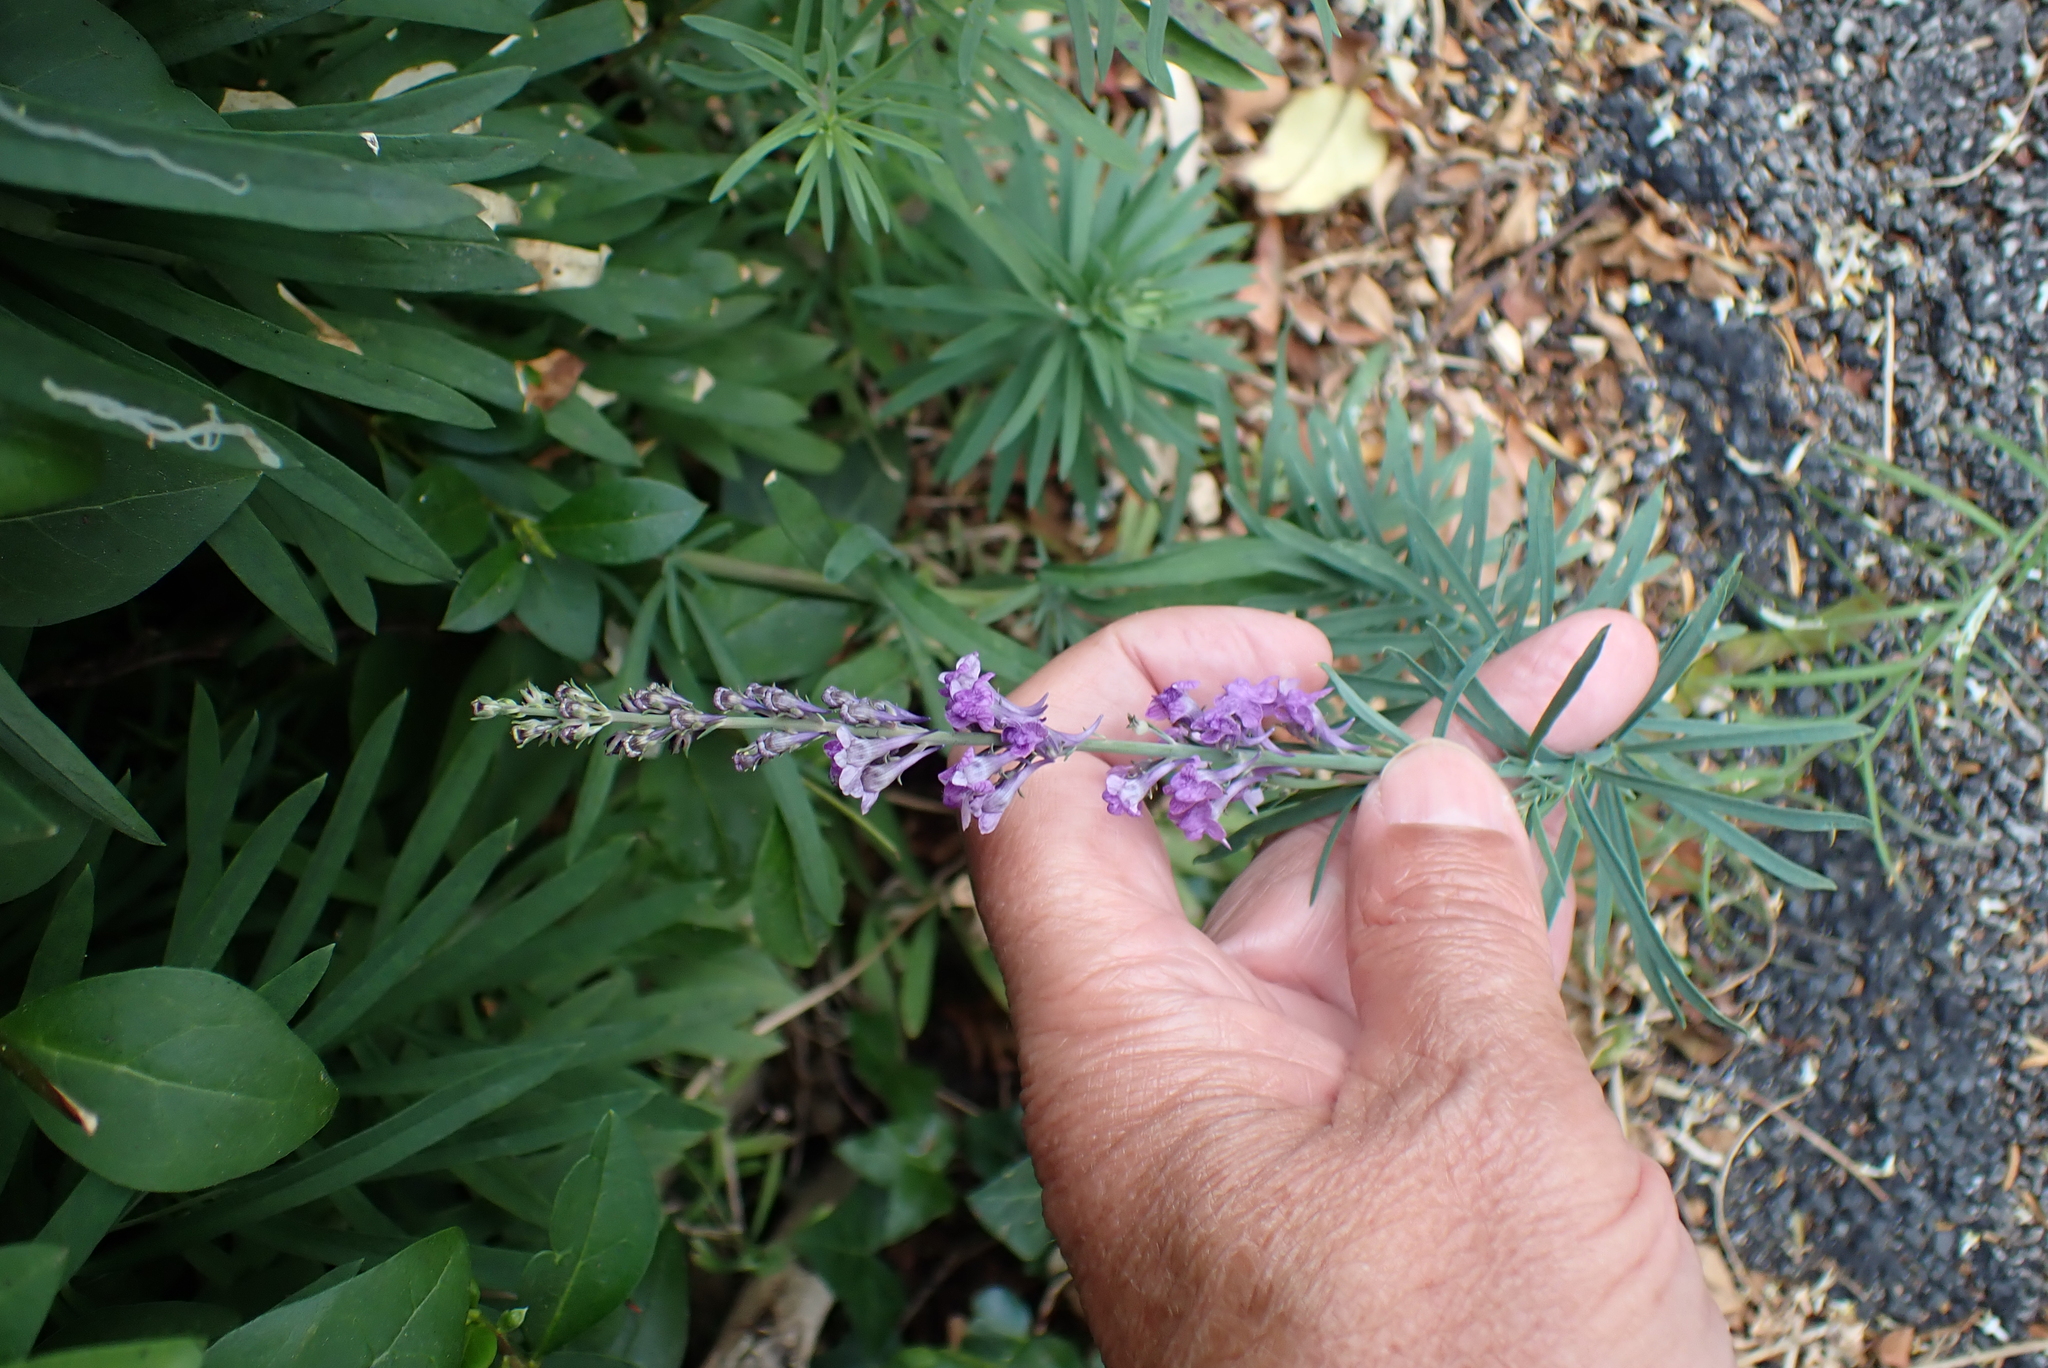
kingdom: Plantae
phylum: Tracheophyta
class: Magnoliopsida
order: Lamiales
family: Plantaginaceae
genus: Linaria
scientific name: Linaria purpurea
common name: Purple toadflax
